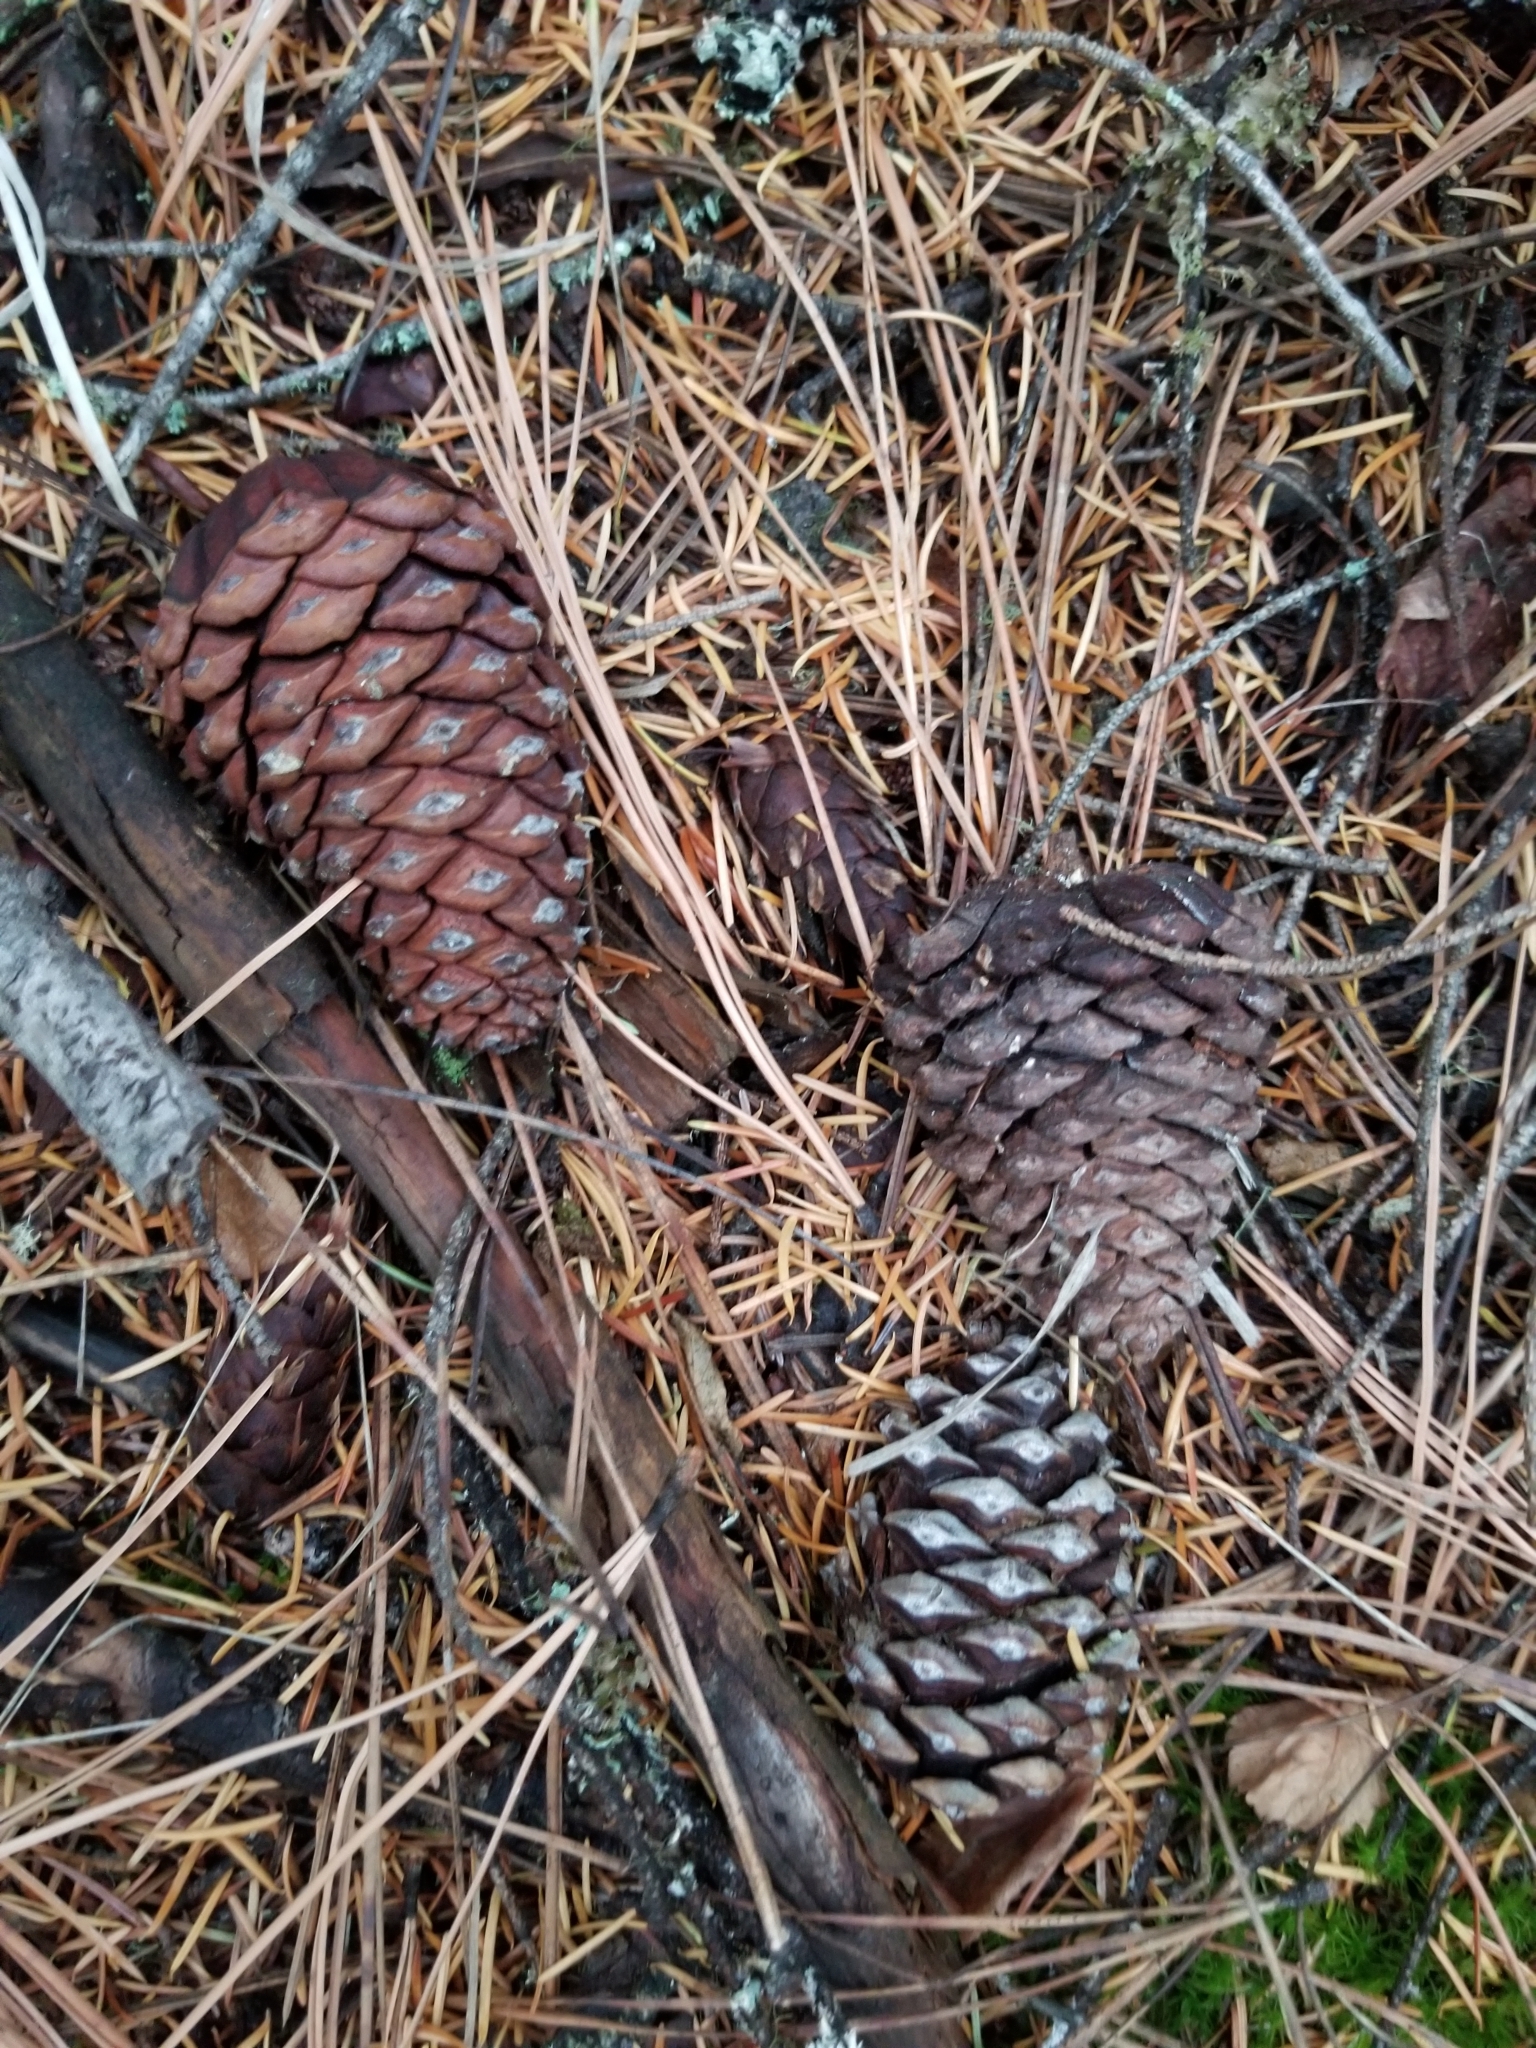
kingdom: Plantae
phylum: Tracheophyta
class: Pinopsida
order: Pinales
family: Pinaceae
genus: Pinus
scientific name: Pinus ponderosa
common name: Western yellow-pine
